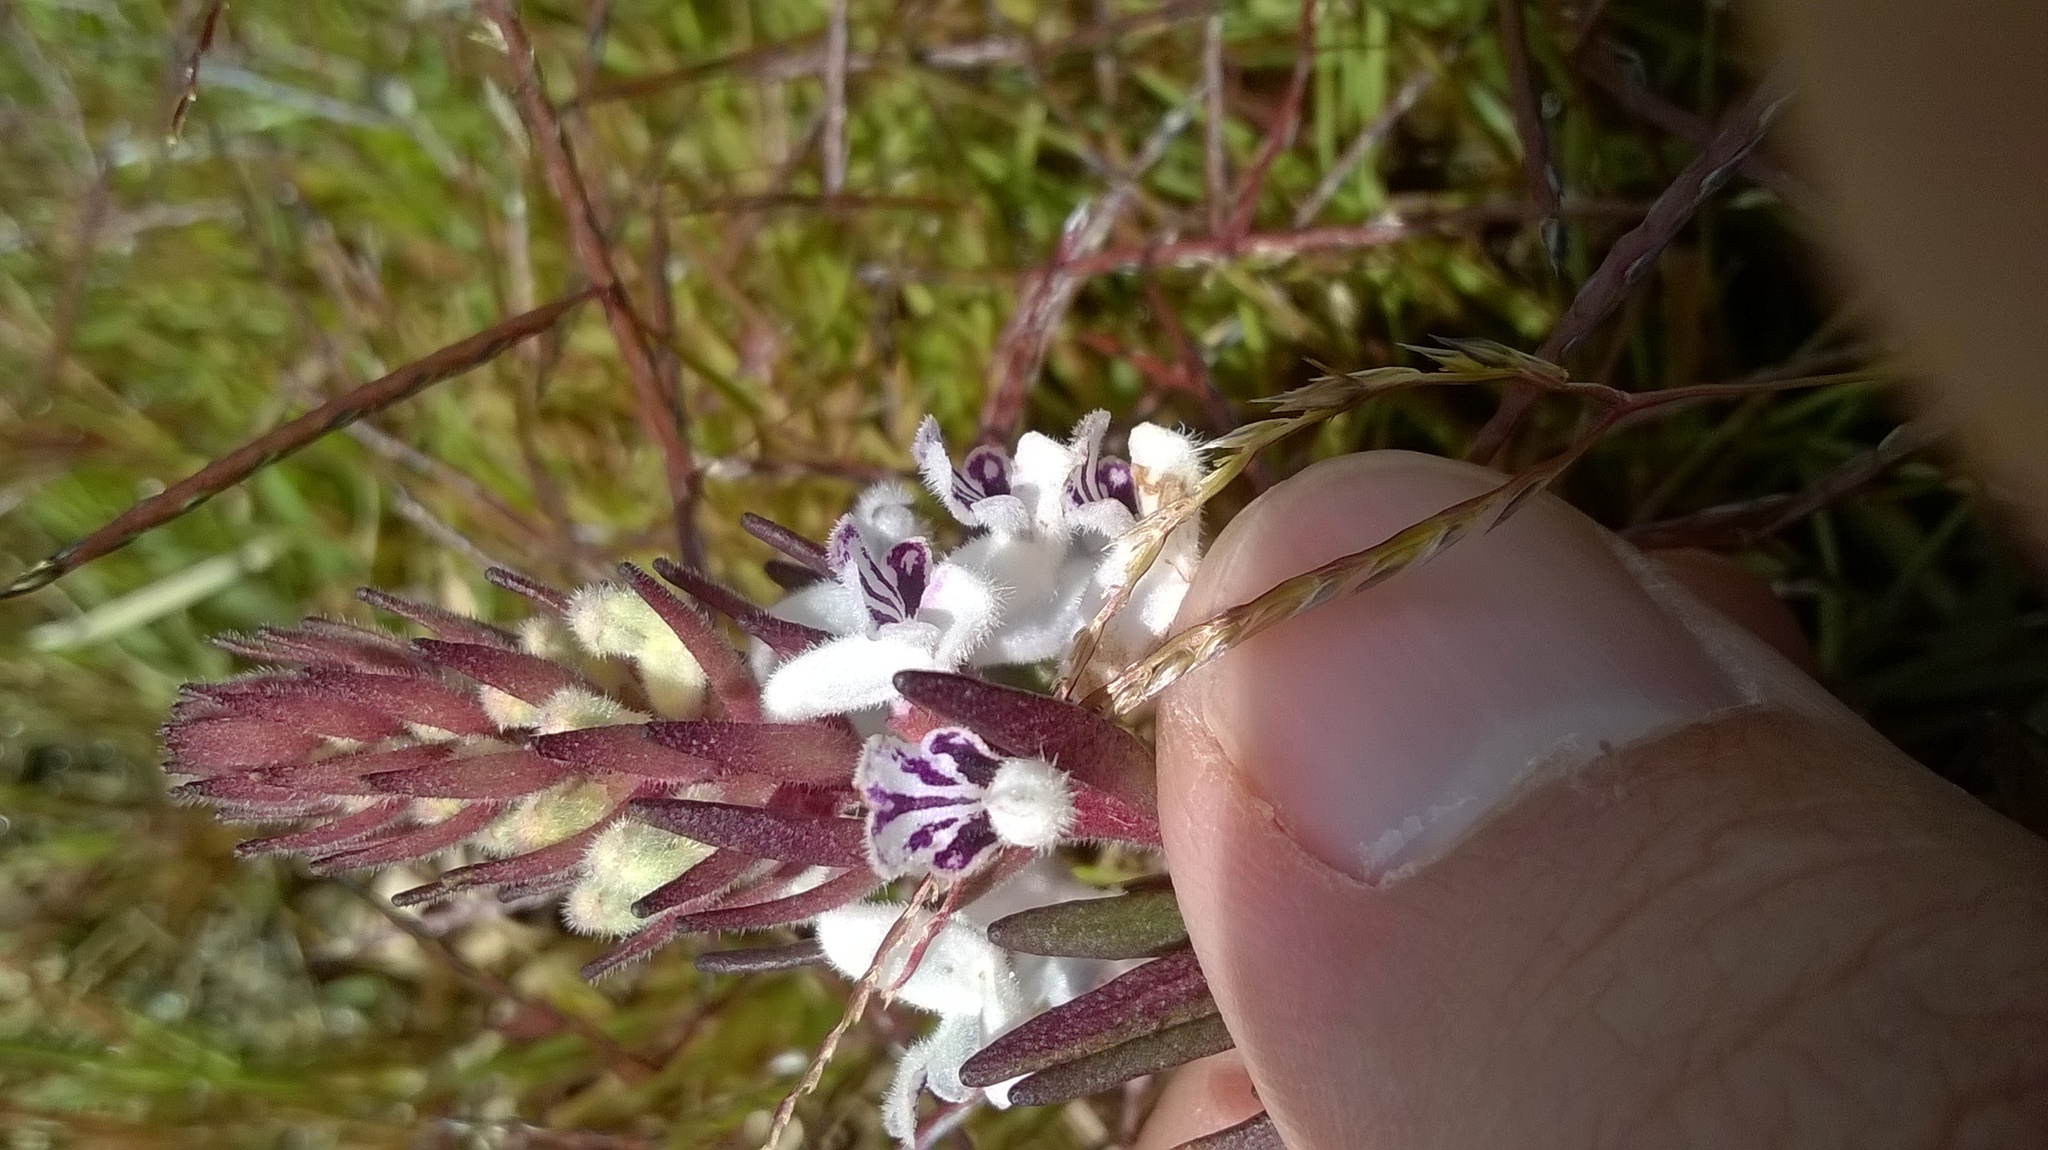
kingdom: Plantae
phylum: Tracheophyta
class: Magnoliopsida
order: Lamiales
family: Lamiaceae
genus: Aeollanthus
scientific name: Aeollanthus subacaulis
